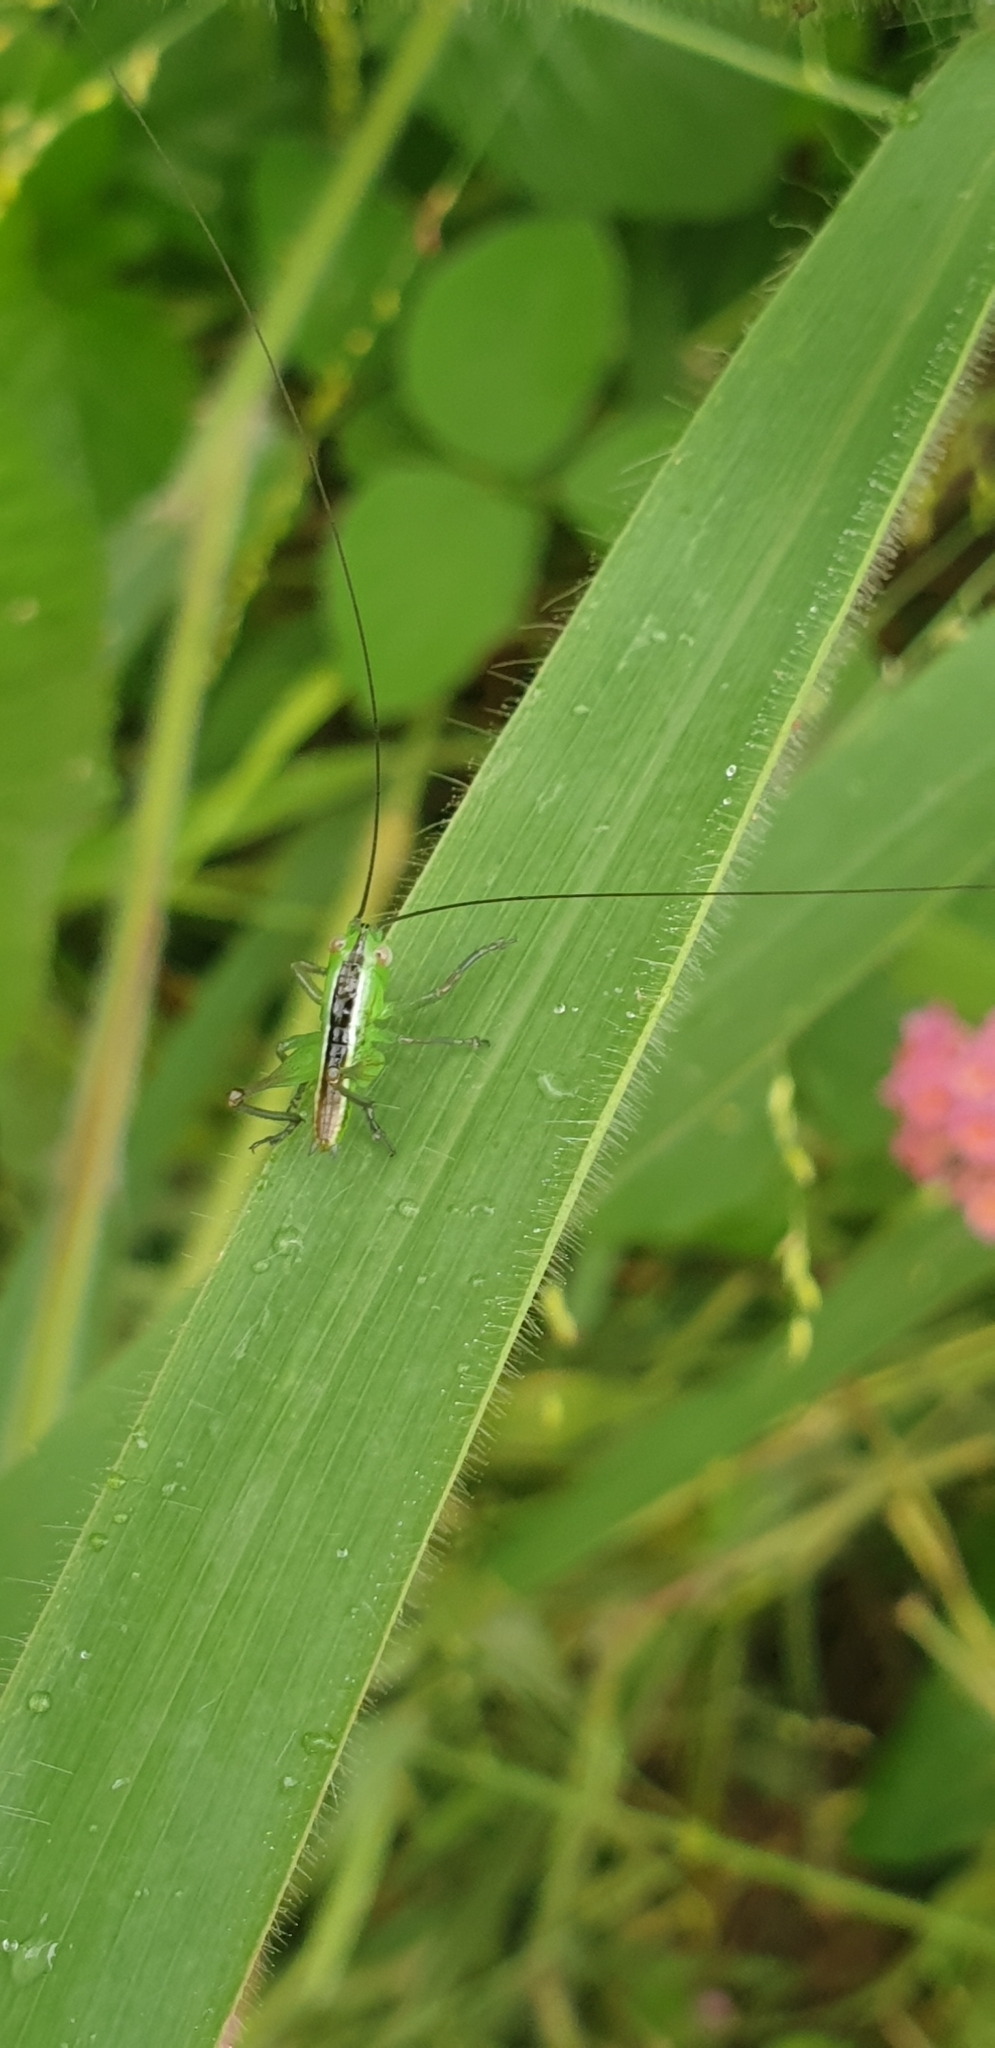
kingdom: Animalia
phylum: Arthropoda
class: Insecta
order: Orthoptera
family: Tettigoniidae
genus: Conocephalus
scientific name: Conocephalus semivittatus
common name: Blackish meadow katydid
